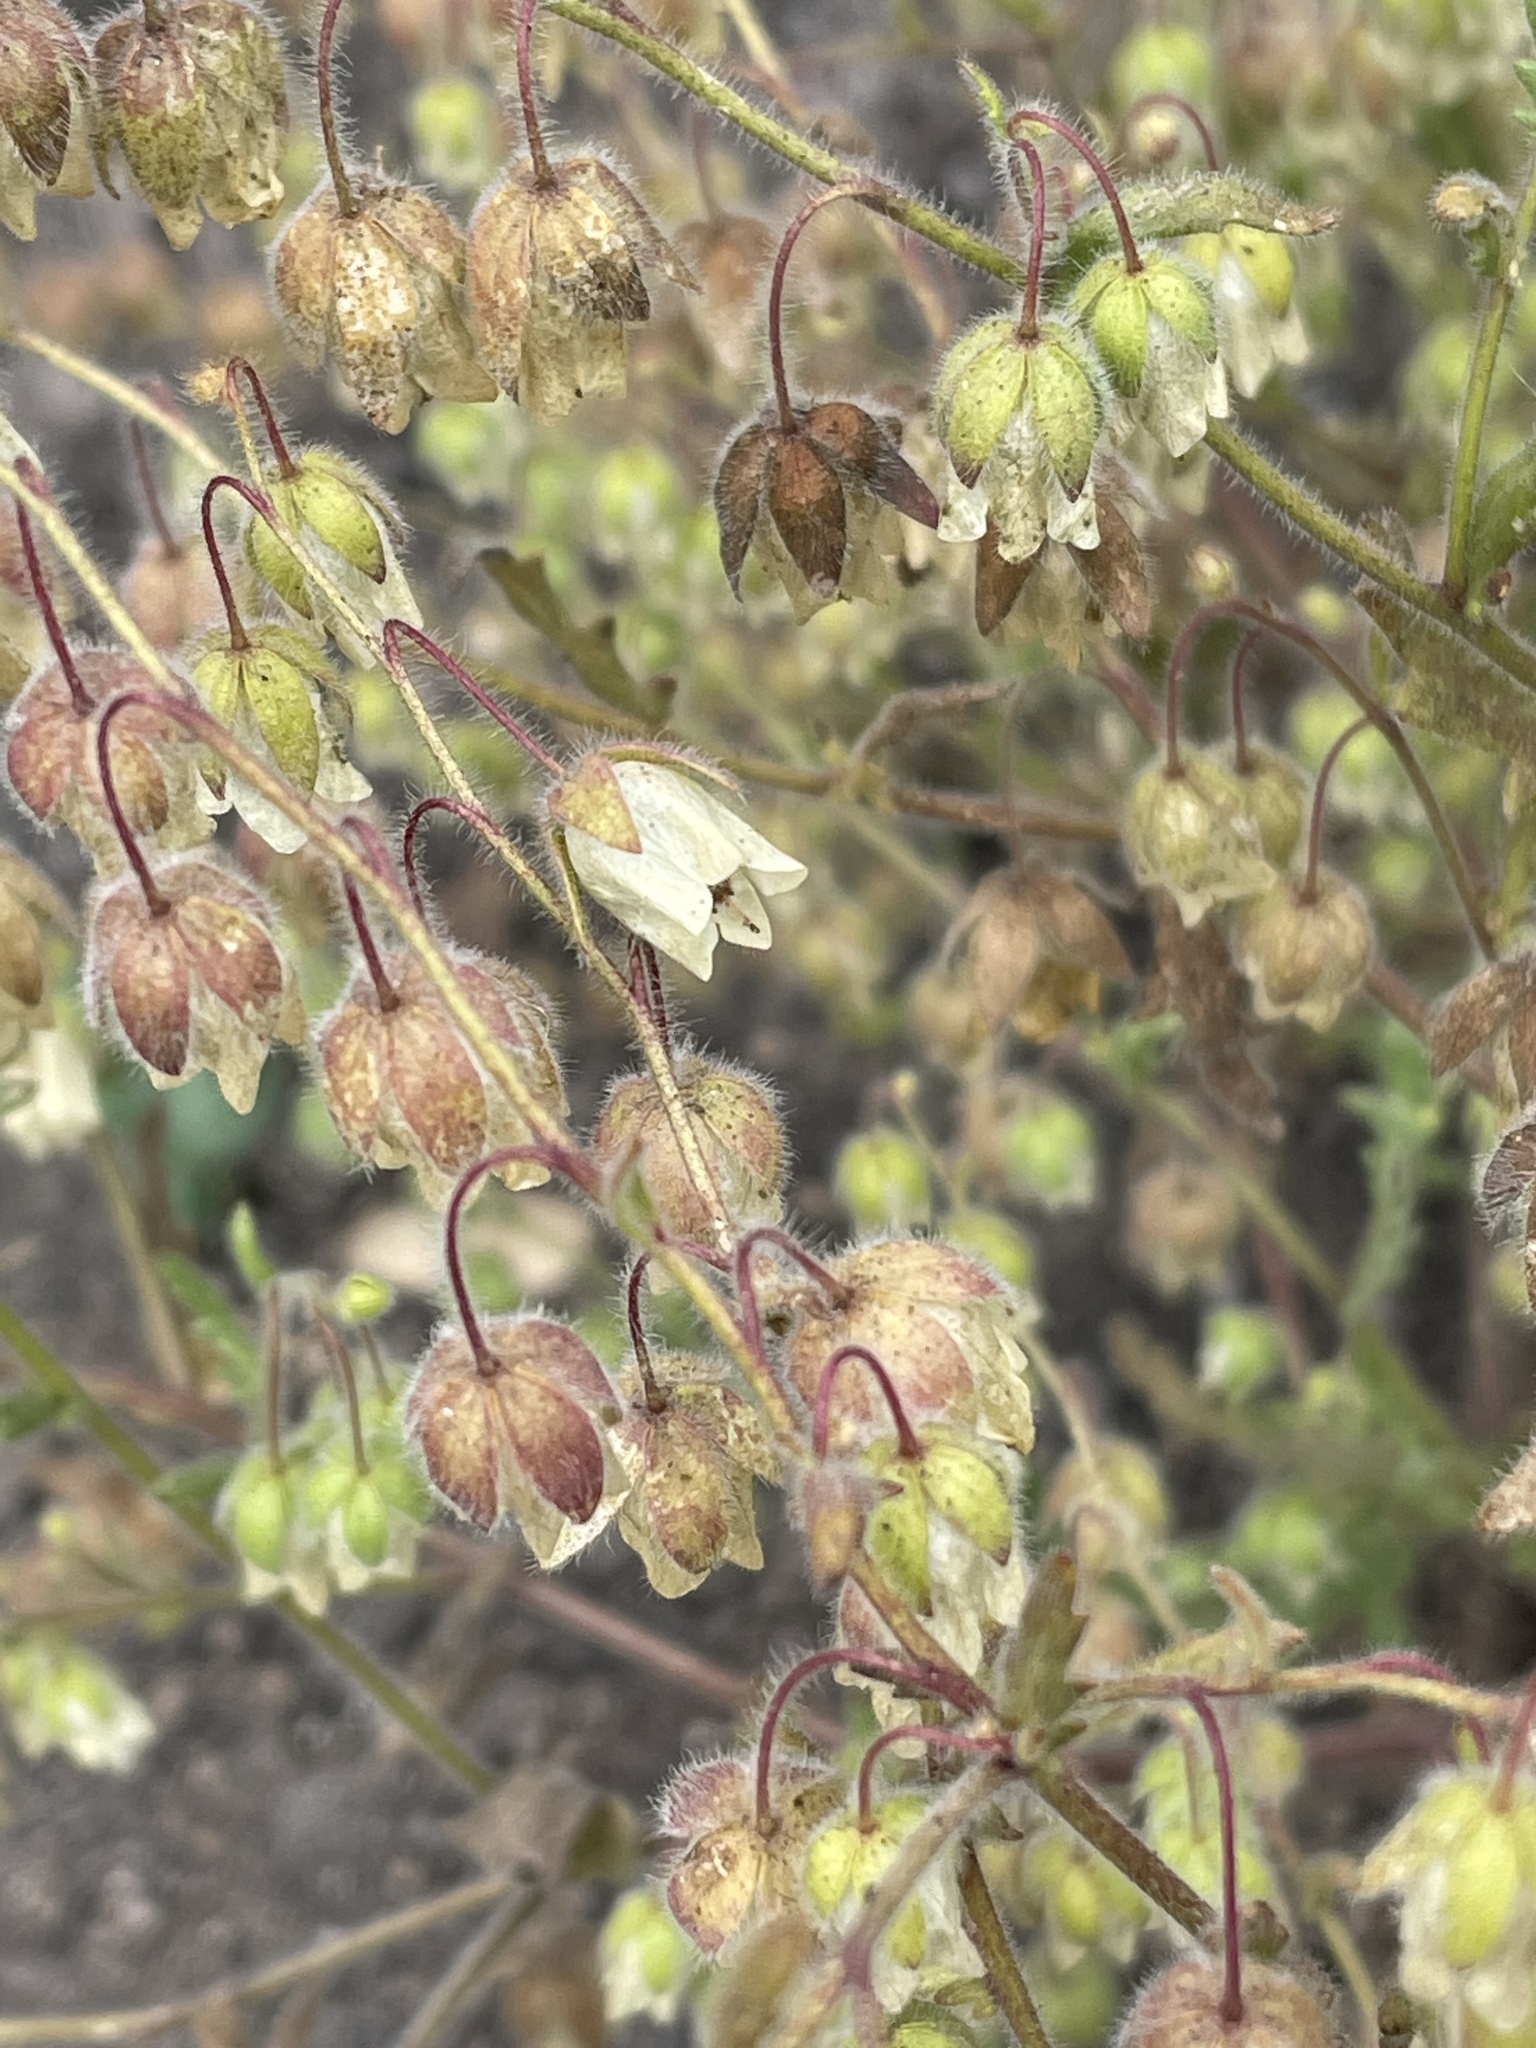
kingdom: Plantae
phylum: Tracheophyta
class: Magnoliopsida
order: Boraginales
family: Hydrophyllaceae
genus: Emmenanthe
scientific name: Emmenanthe penduliflora
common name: Whispering-bells
